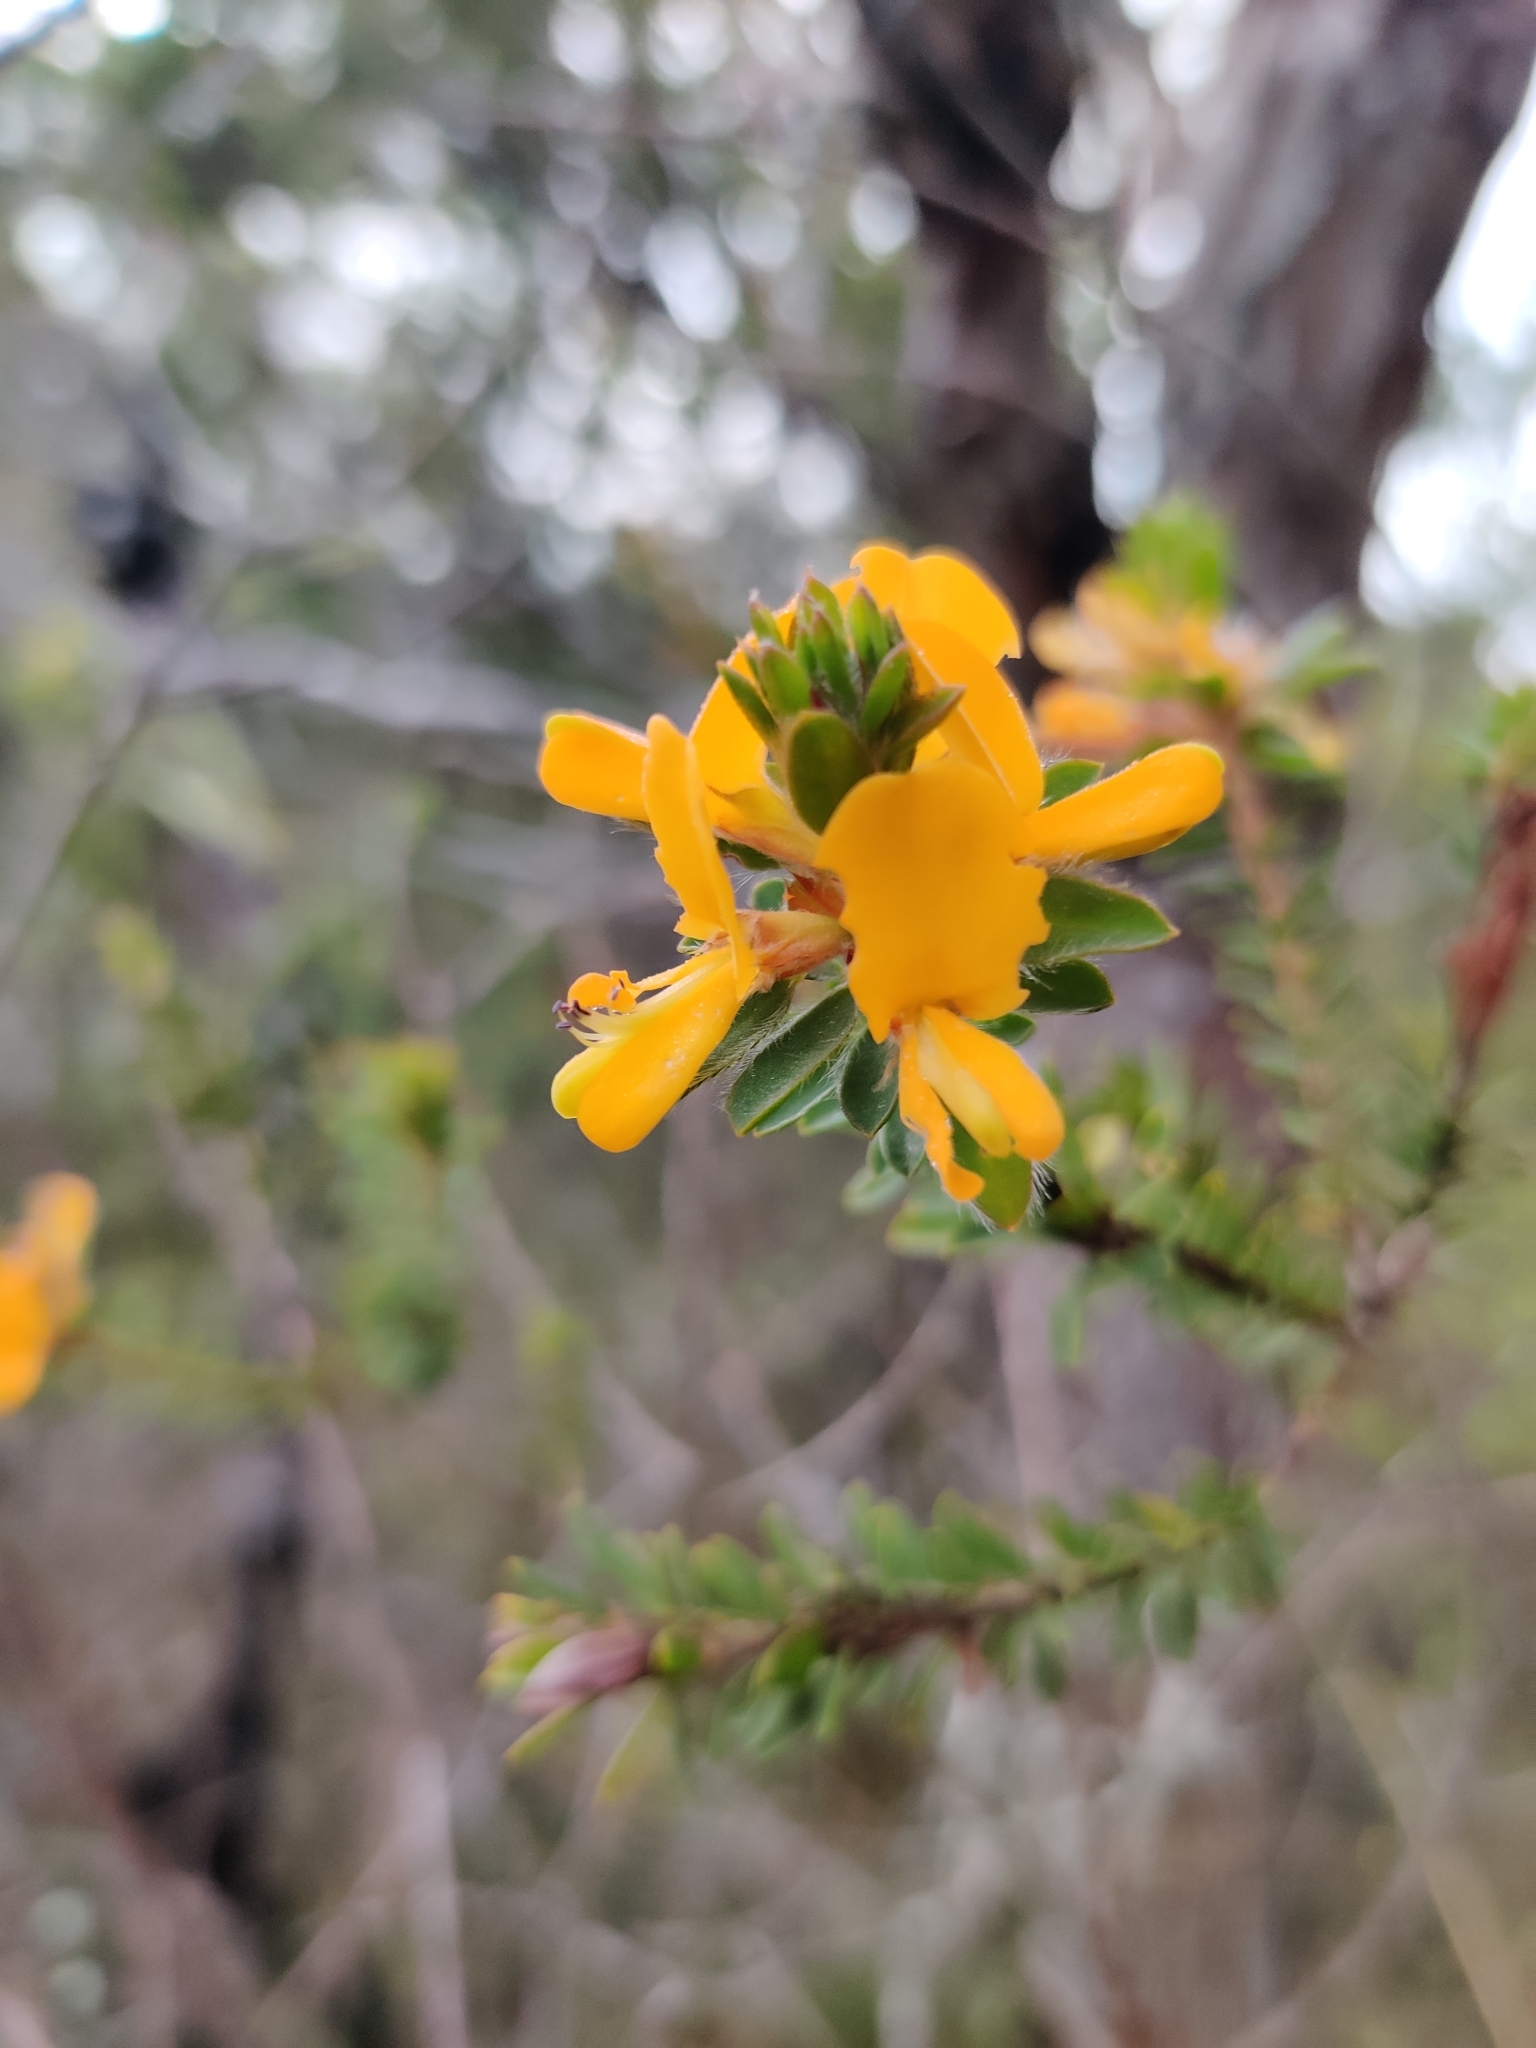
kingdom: Plantae
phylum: Tracheophyta
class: Magnoliopsida
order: Fabales
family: Fabaceae
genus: Pultenaea
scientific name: Pultenaea tuberculata
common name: Wreath bush-pea
